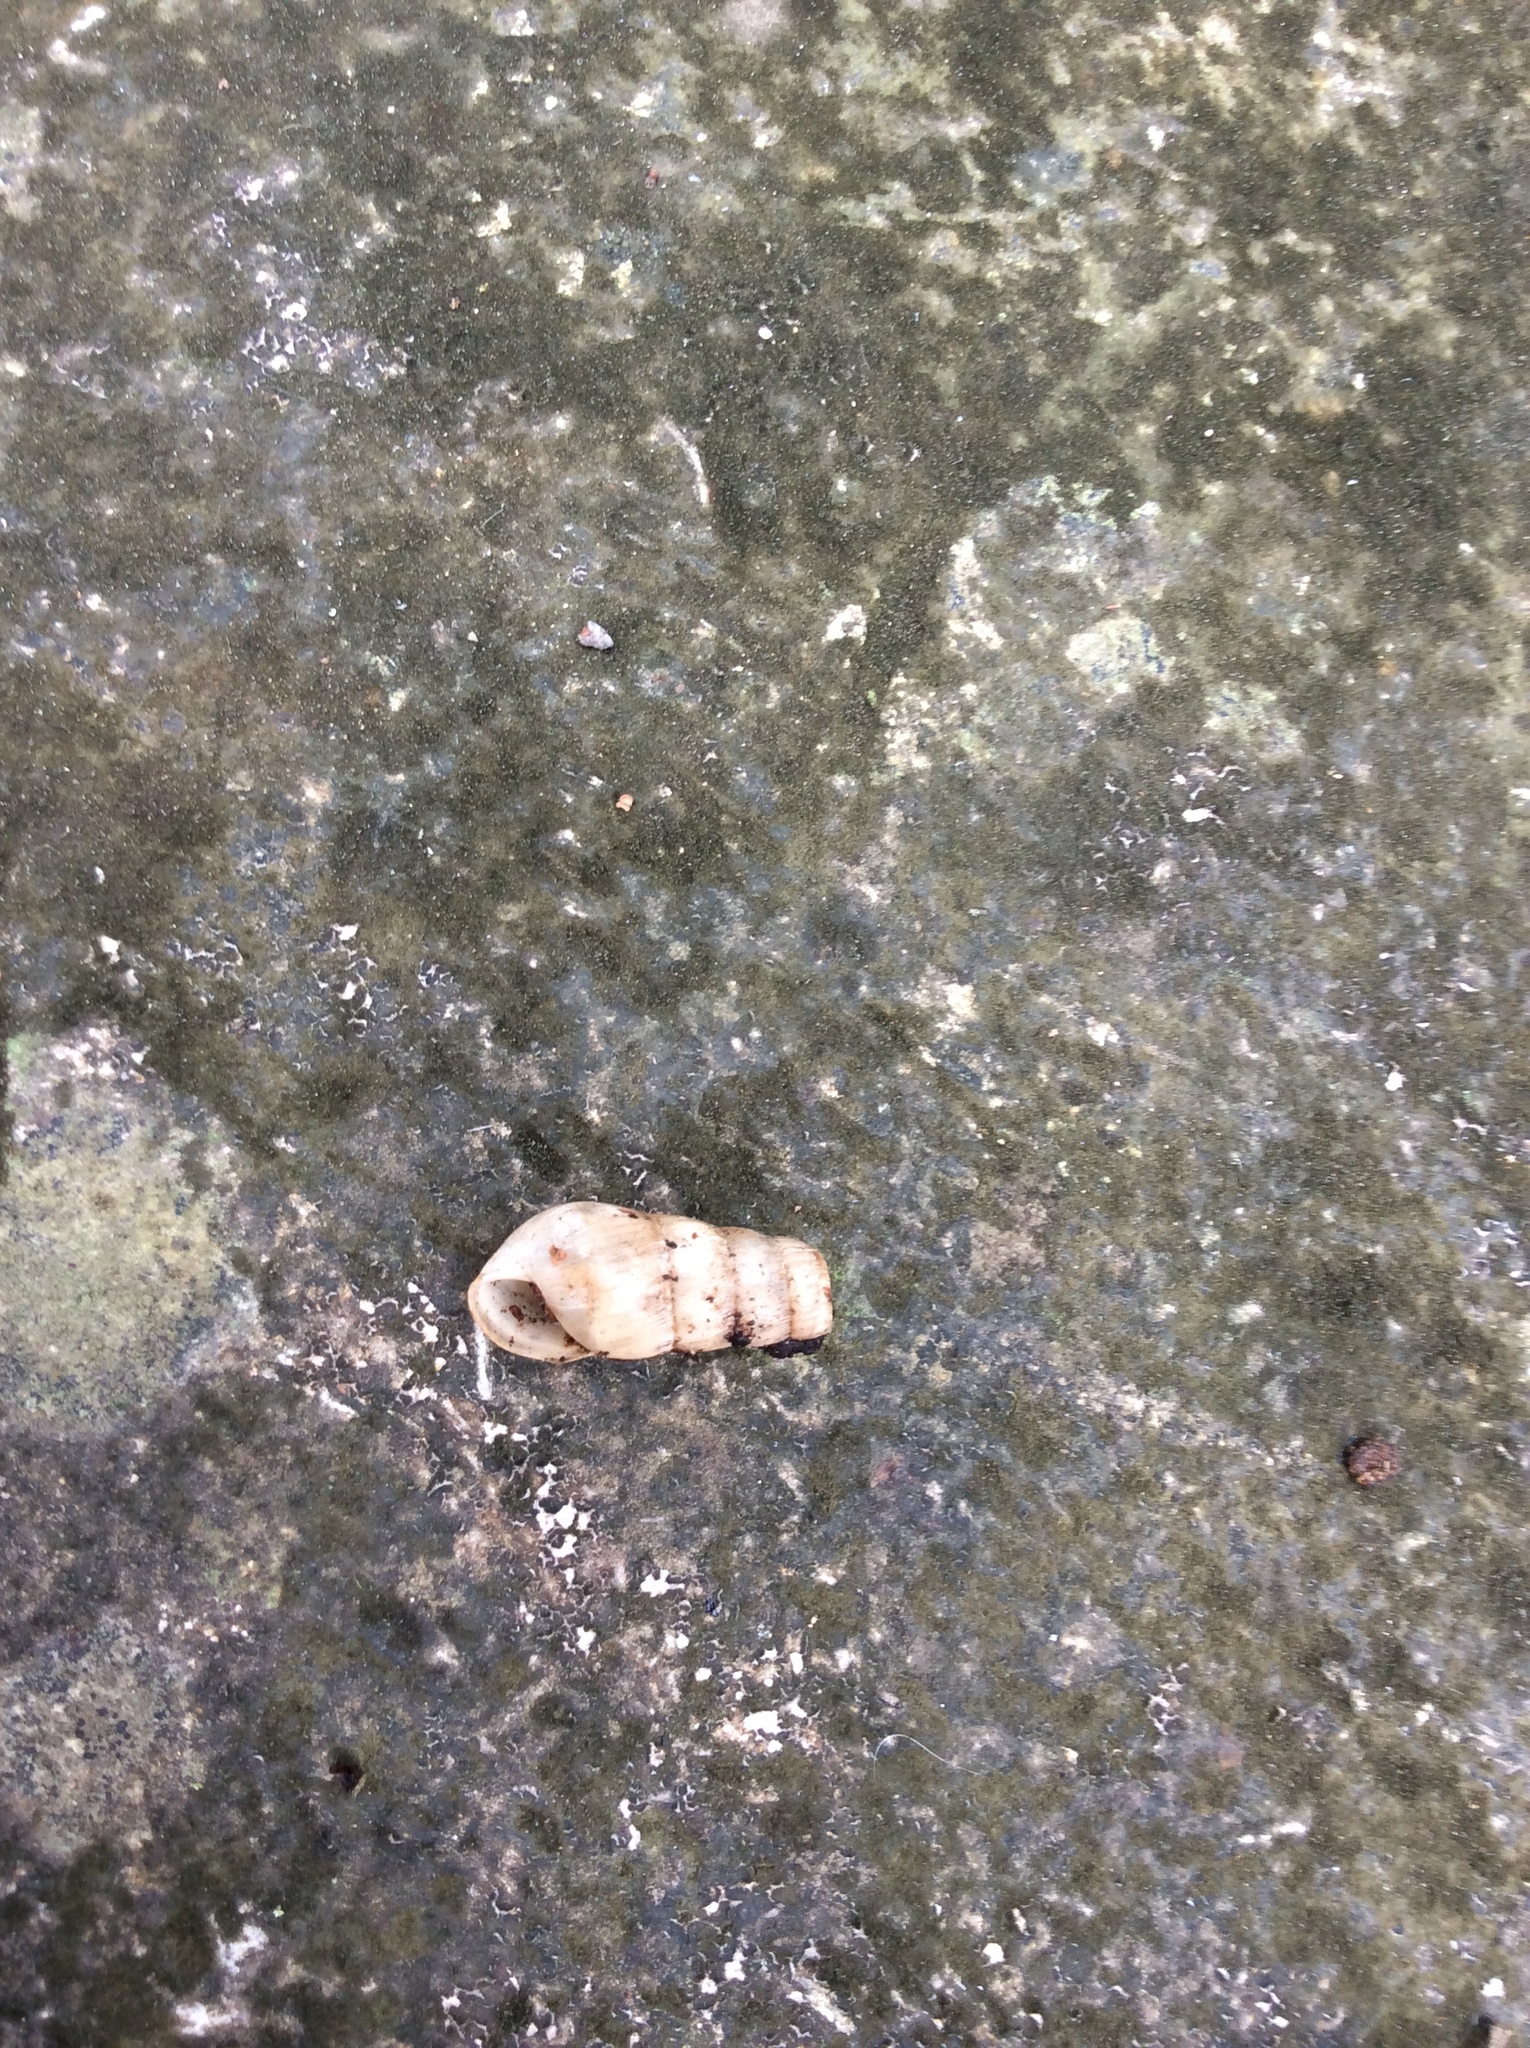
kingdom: Animalia
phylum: Mollusca
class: Gastropoda
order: Stylommatophora
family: Achatinidae
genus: Rumina
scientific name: Rumina decollata
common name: Decollate snail
